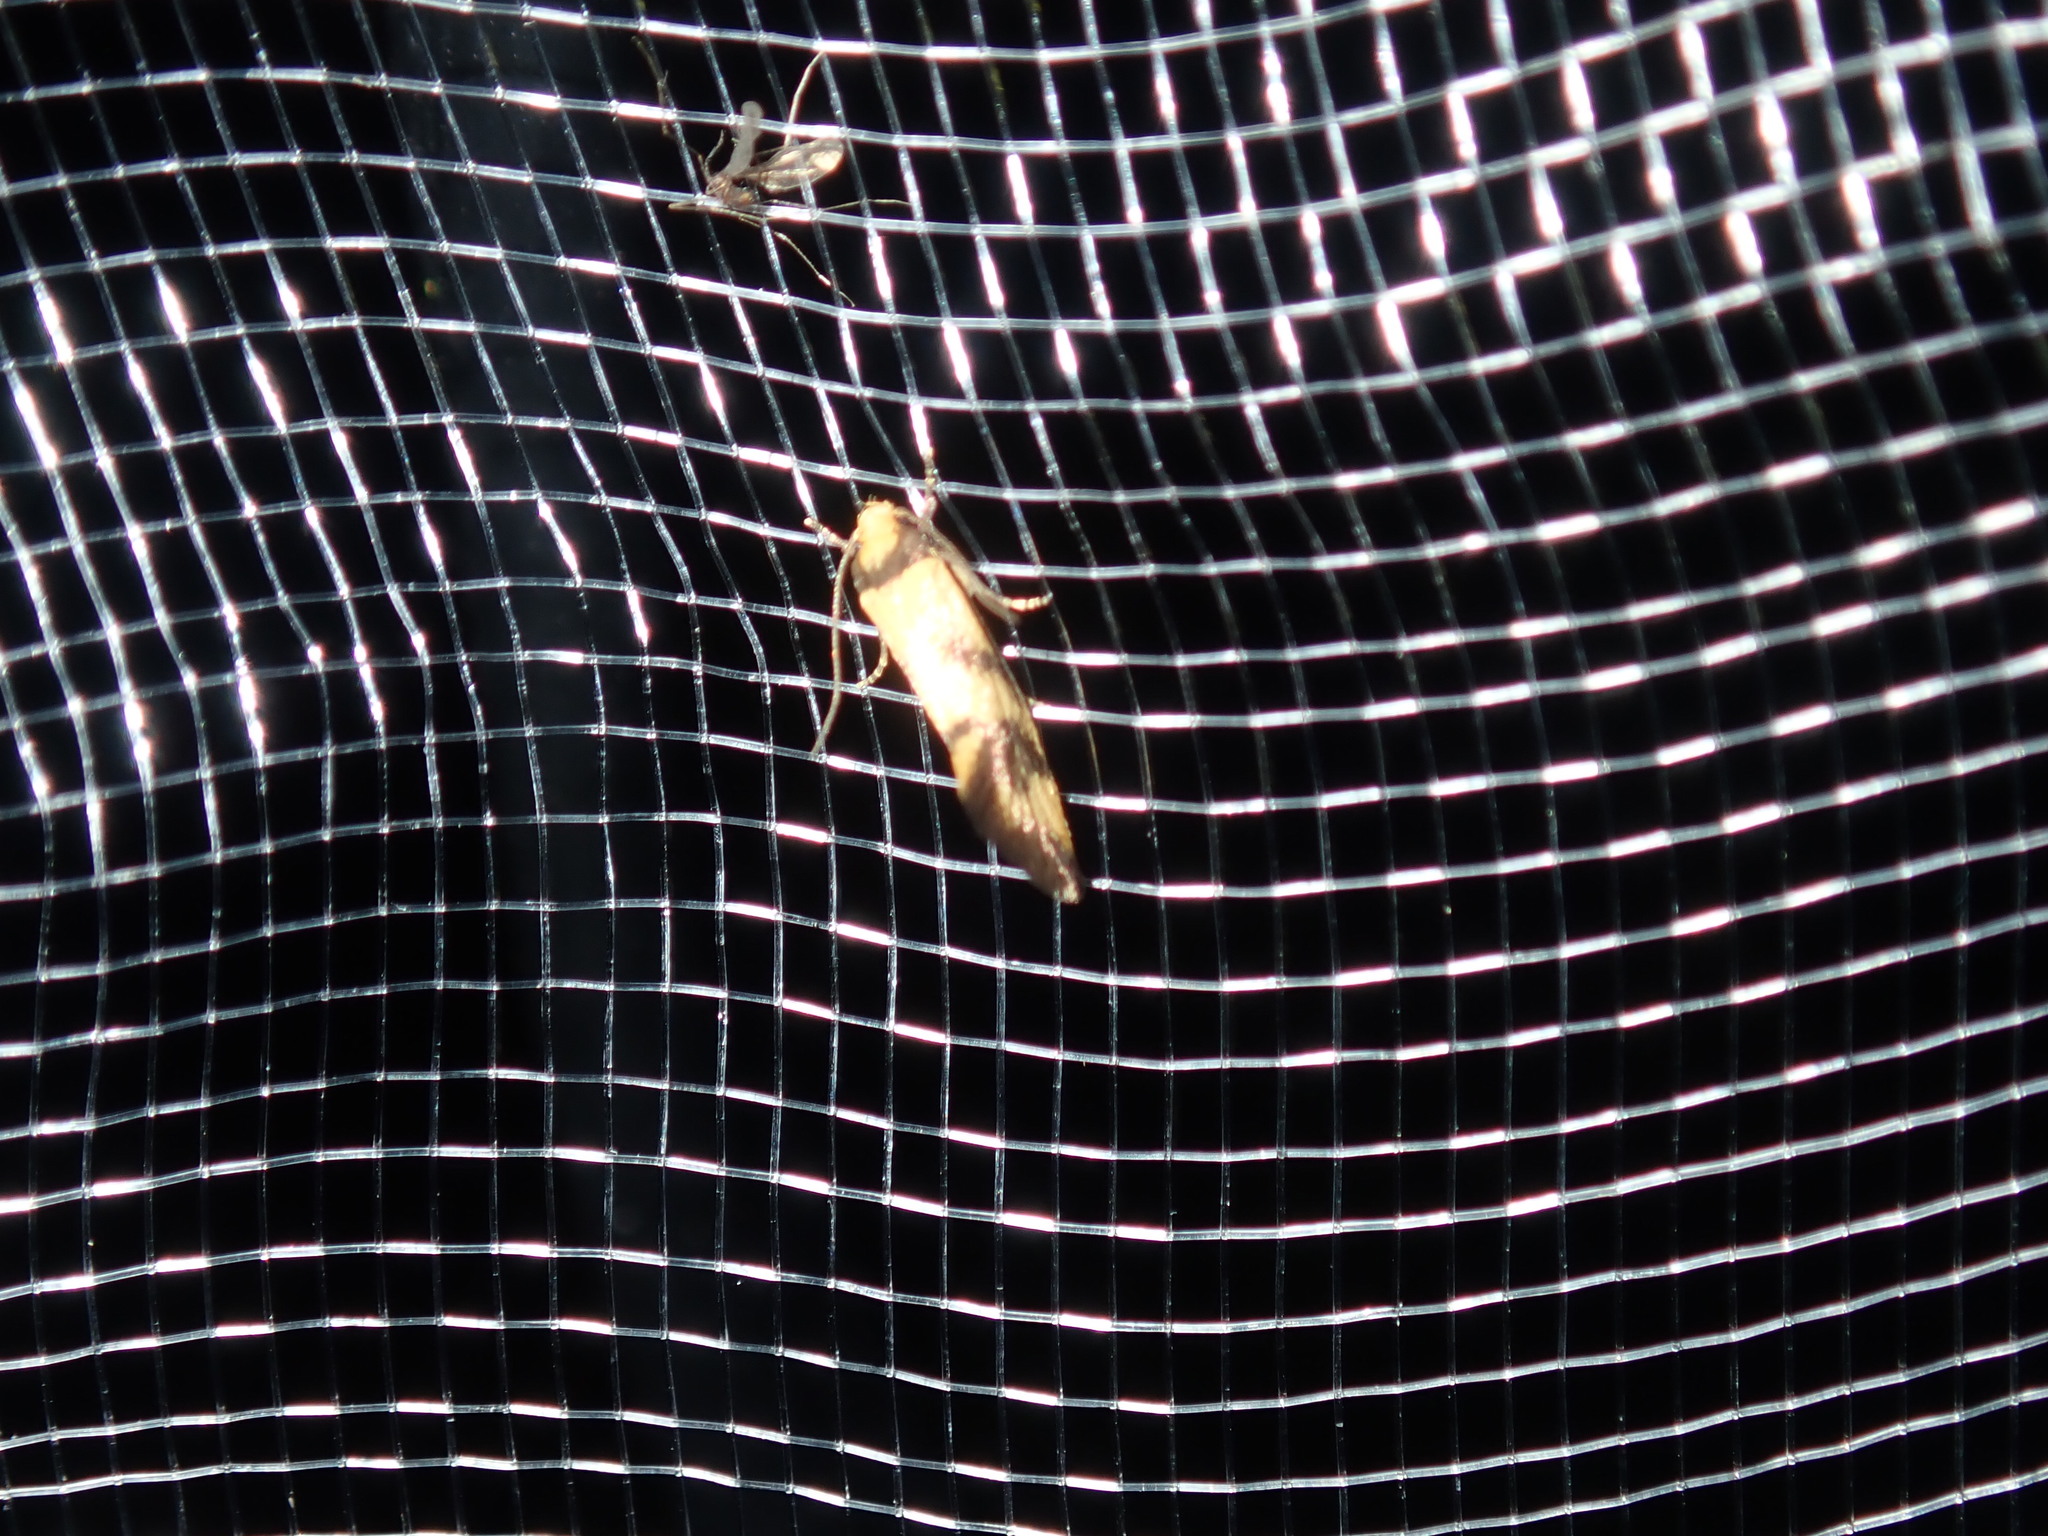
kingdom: Animalia
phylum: Arthropoda
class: Insecta
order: Lepidoptera
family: Oecophoridae
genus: Olbonoma
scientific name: Olbonoma triptycha
